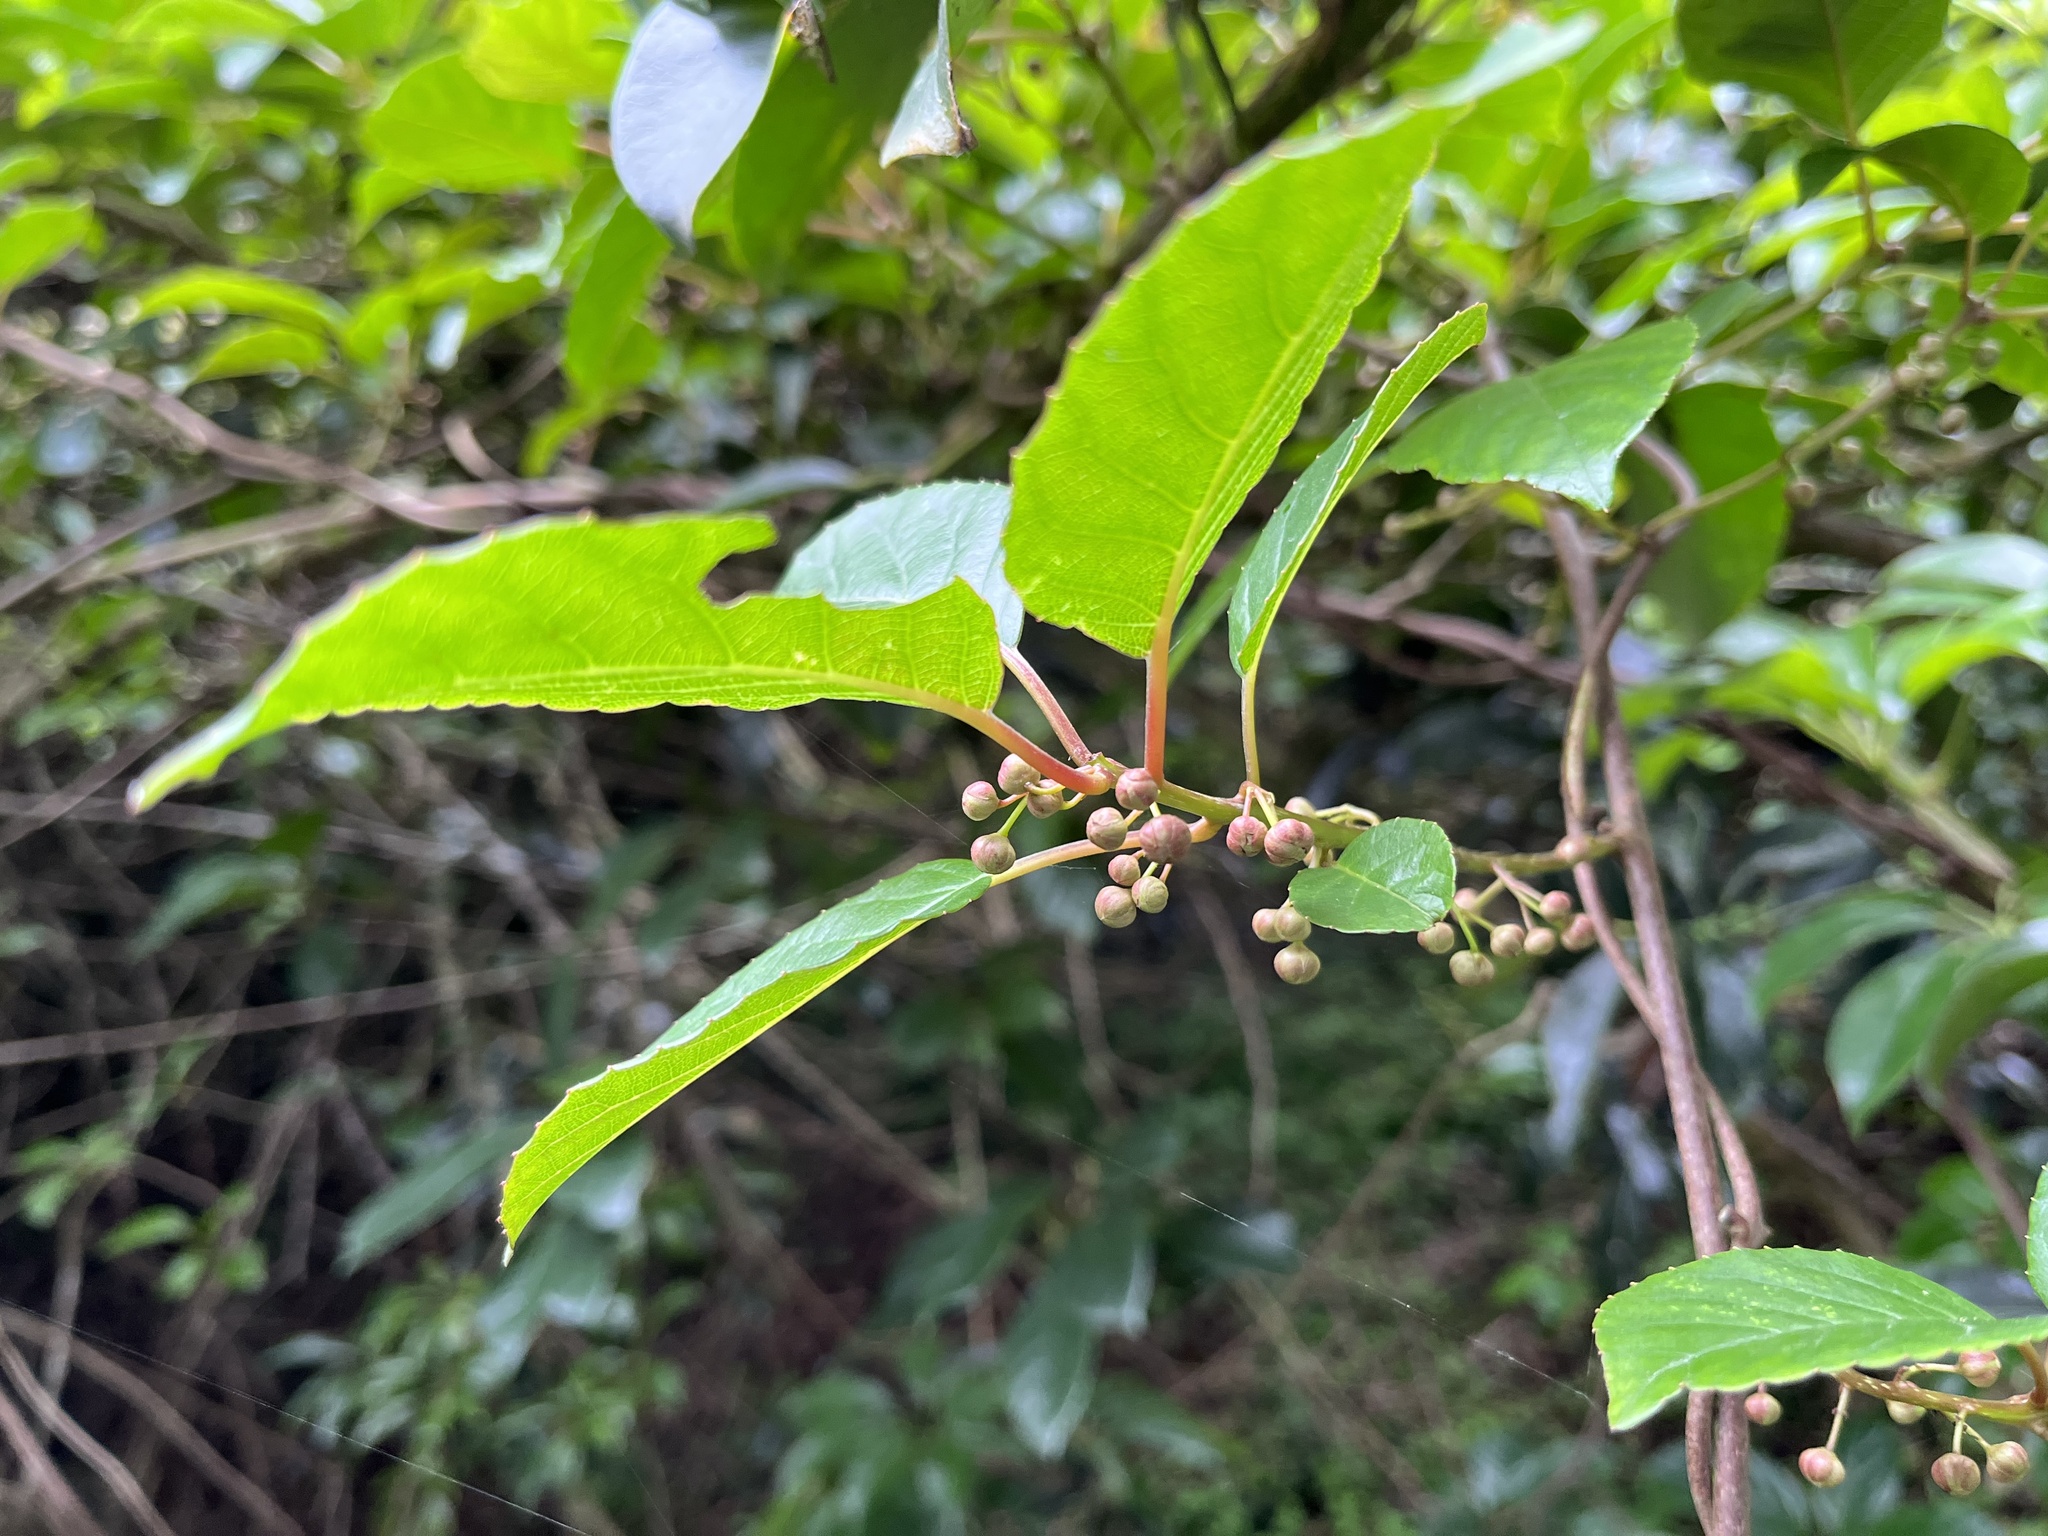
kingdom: Plantae
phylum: Tracheophyta
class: Magnoliopsida
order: Ericales
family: Actinidiaceae
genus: Actinidia
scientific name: Actinidia rufa
